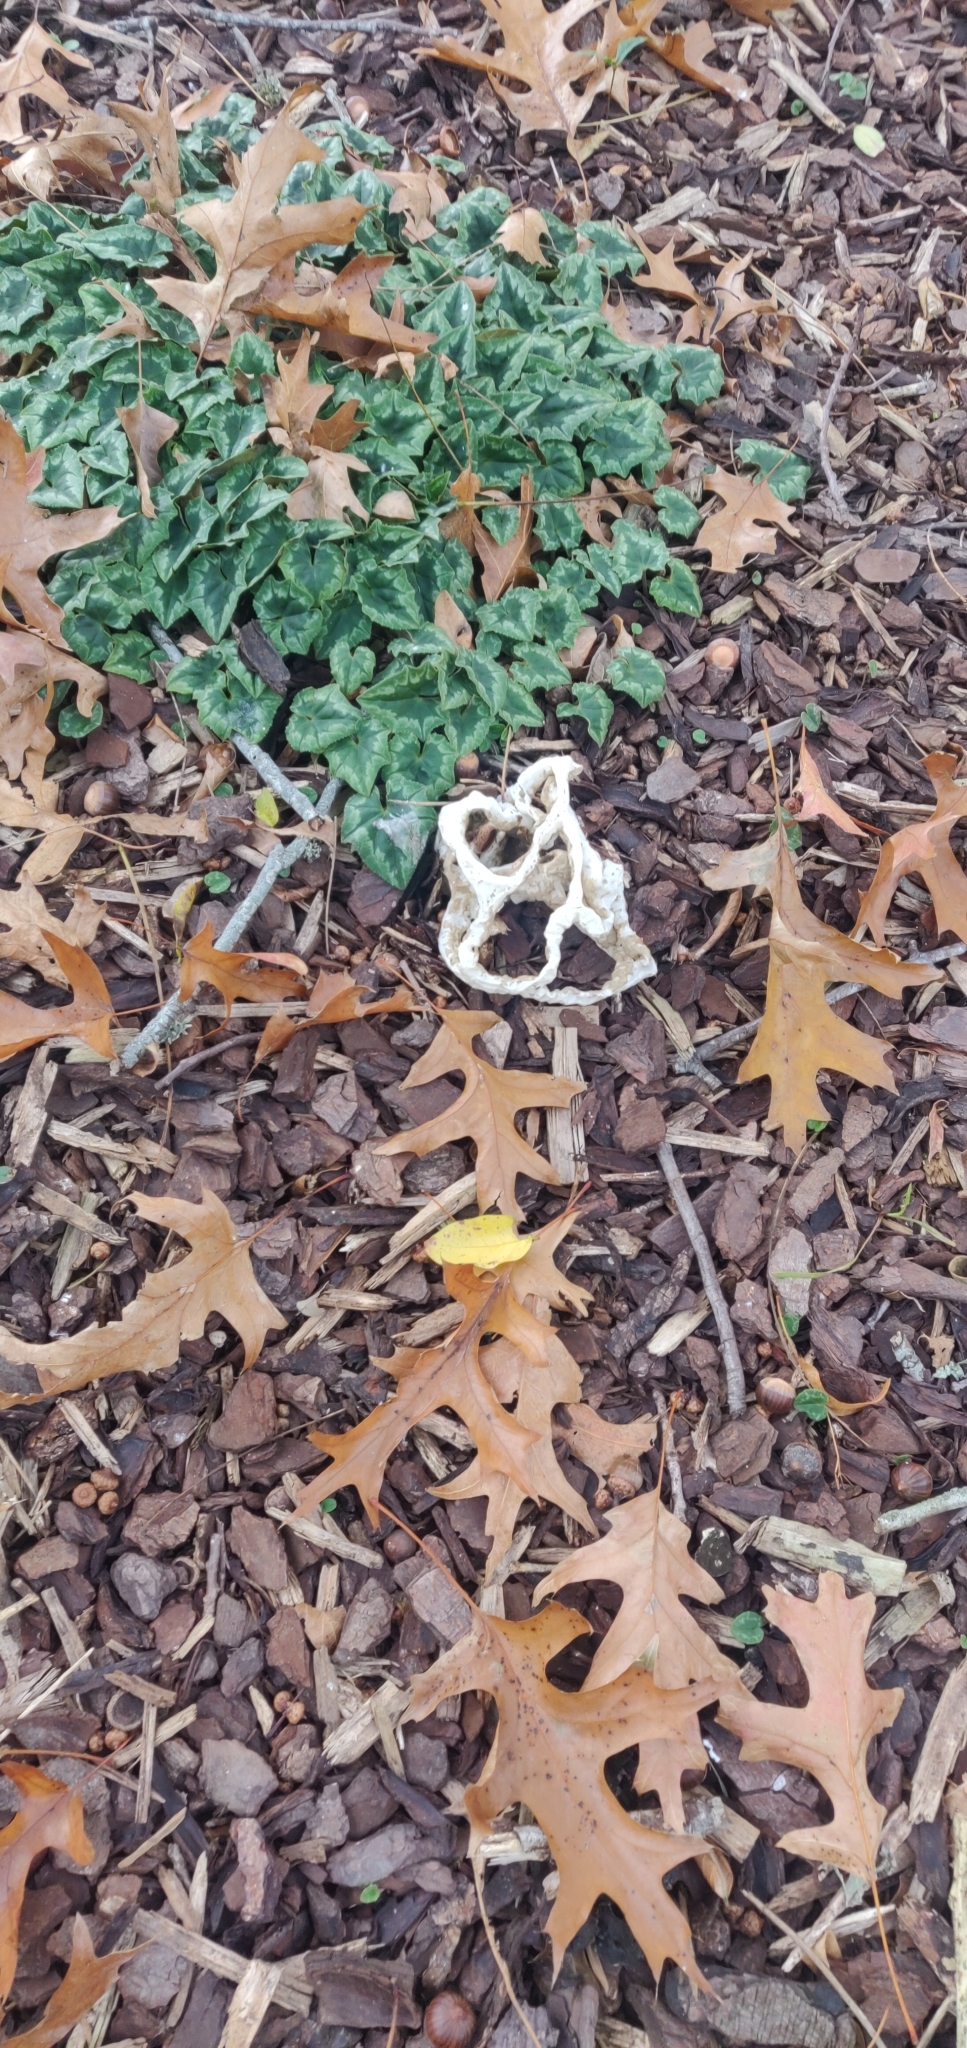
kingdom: Fungi
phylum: Basidiomycota
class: Agaricomycetes
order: Phallales
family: Phallaceae
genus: Ileodictyon
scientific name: Ileodictyon cibarium
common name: Basket fungus
